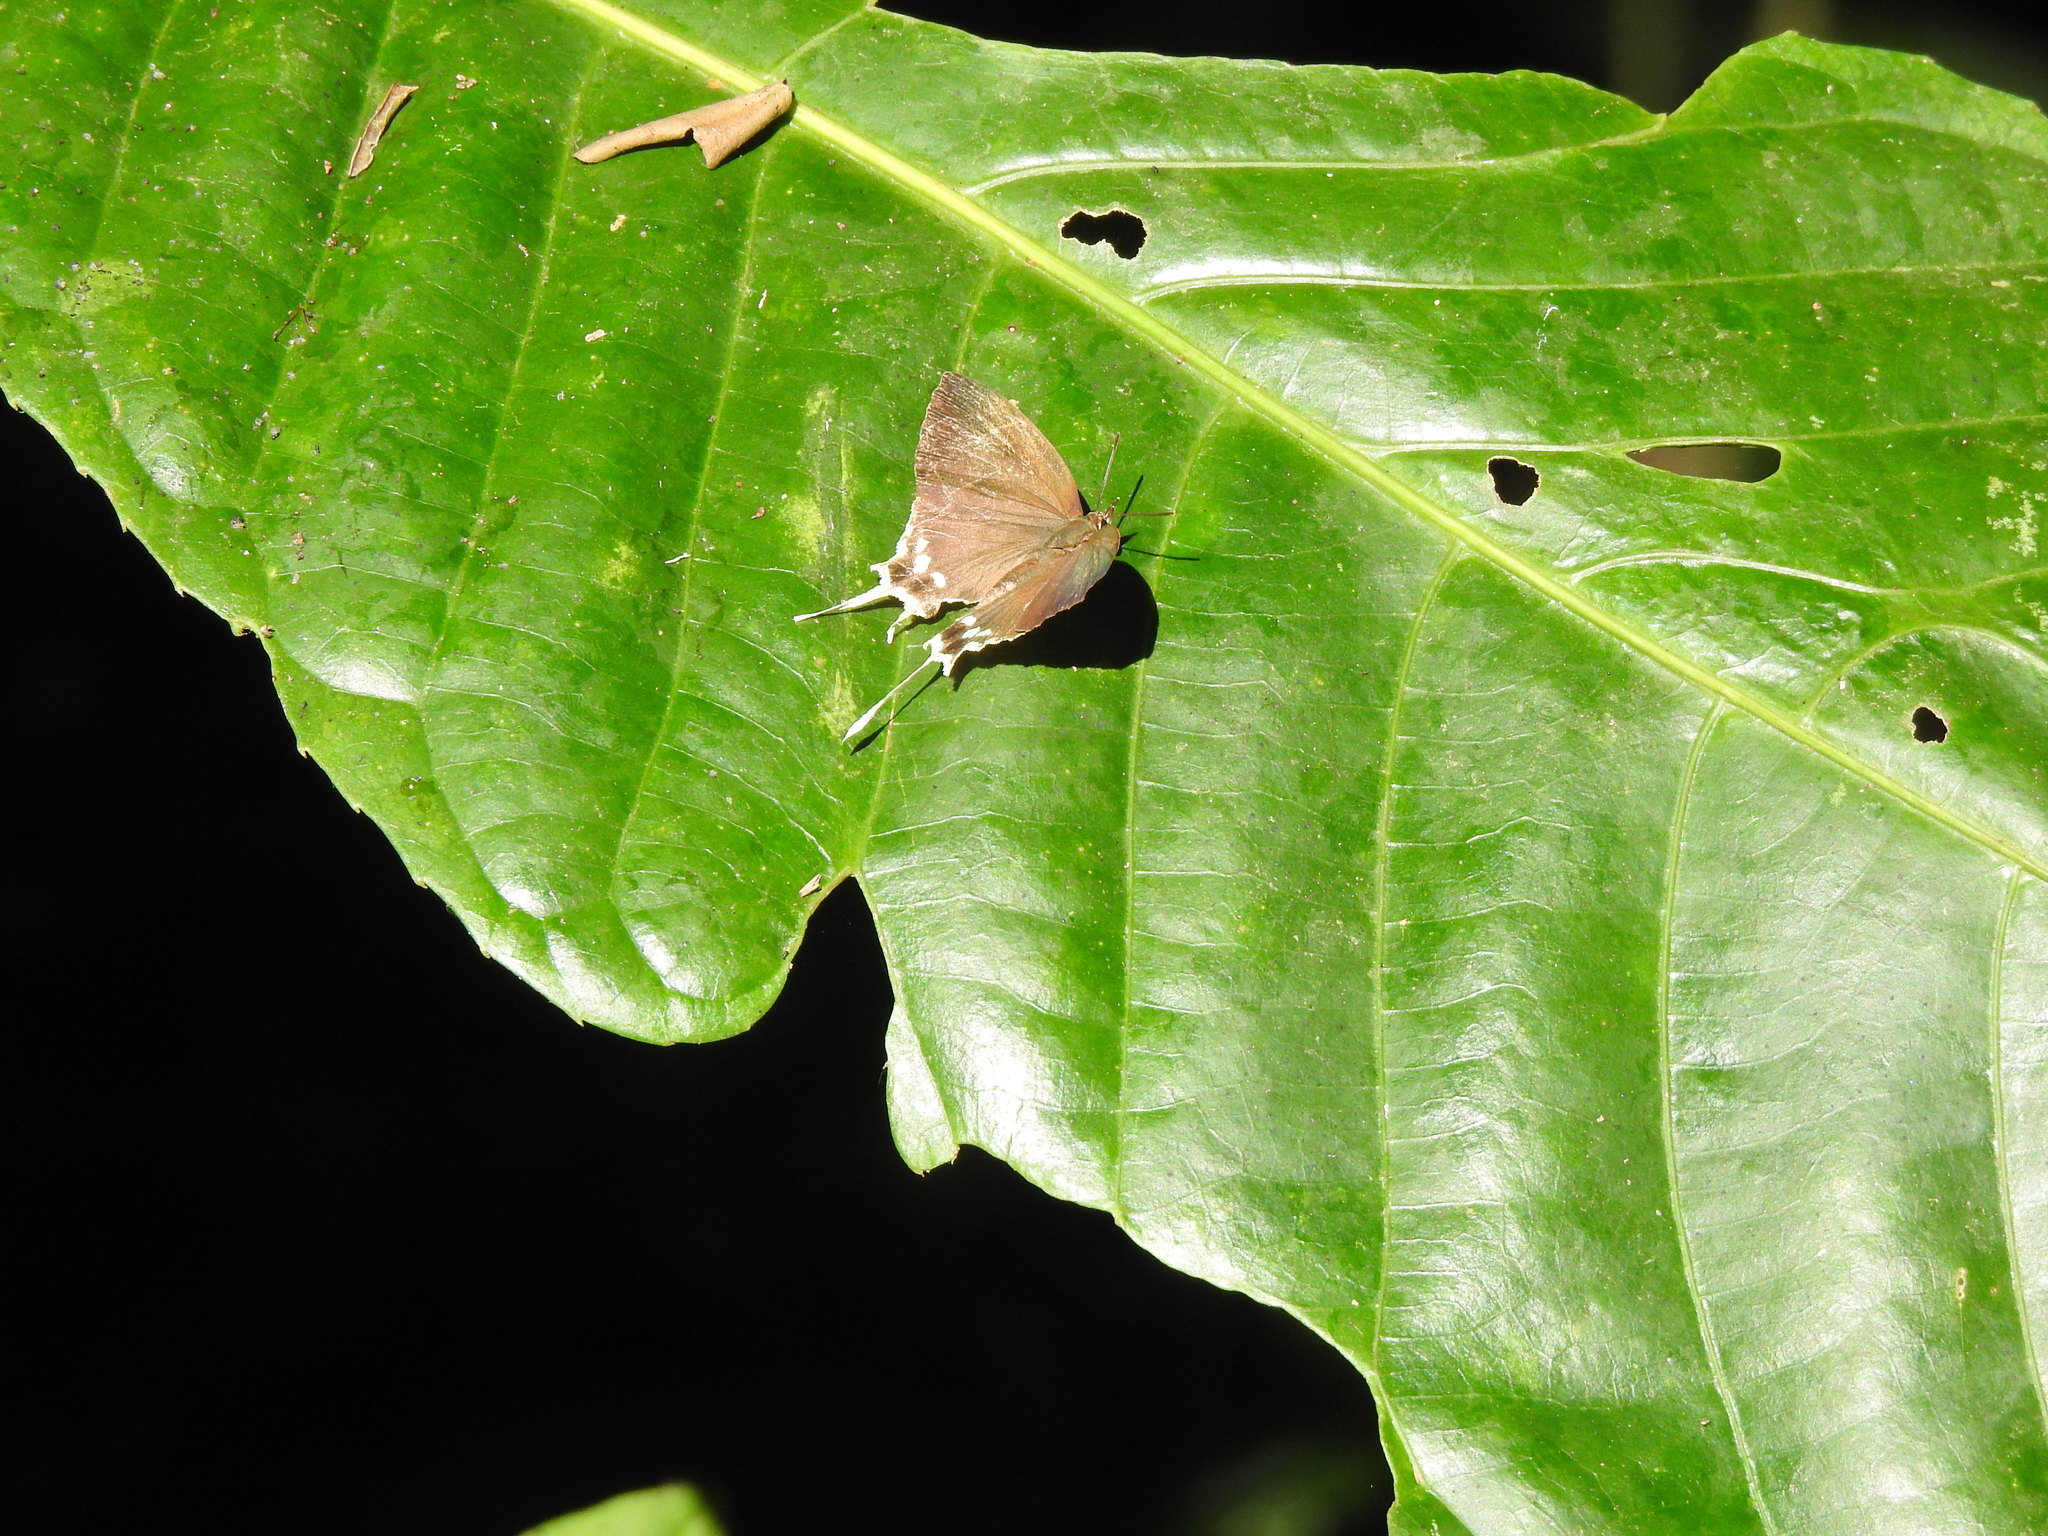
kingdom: Animalia
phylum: Arthropoda
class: Insecta
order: Lepidoptera
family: Lycaenidae
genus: Cheritra
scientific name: Cheritra freja
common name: Common imperial
